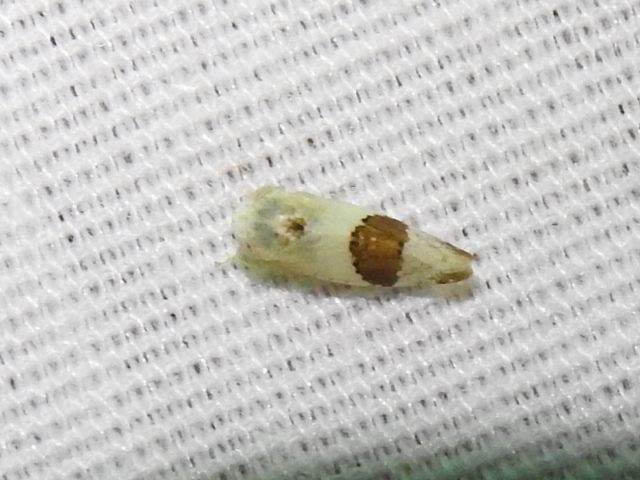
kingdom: Animalia
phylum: Arthropoda
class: Insecta
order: Hemiptera
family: Cicadellidae
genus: Norvellina
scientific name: Norvellina seminuda
